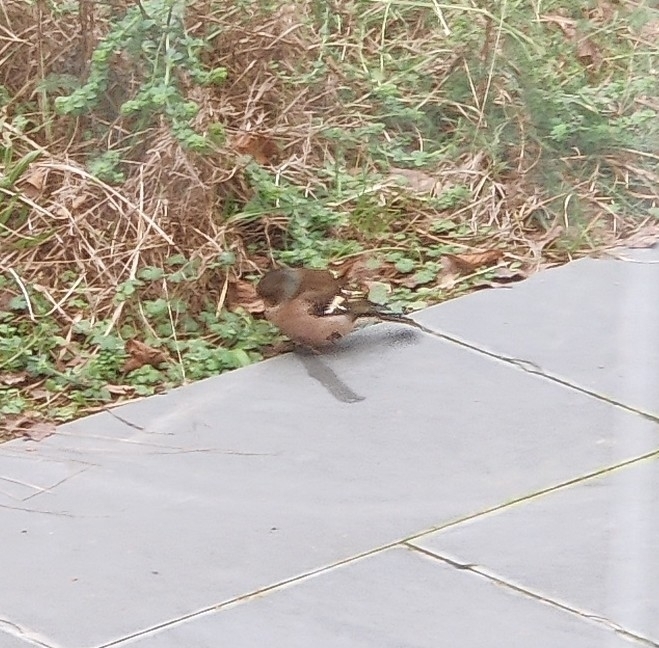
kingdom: Animalia
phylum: Chordata
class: Aves
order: Passeriformes
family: Fringillidae
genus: Fringilla
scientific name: Fringilla coelebs
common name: Common chaffinch
